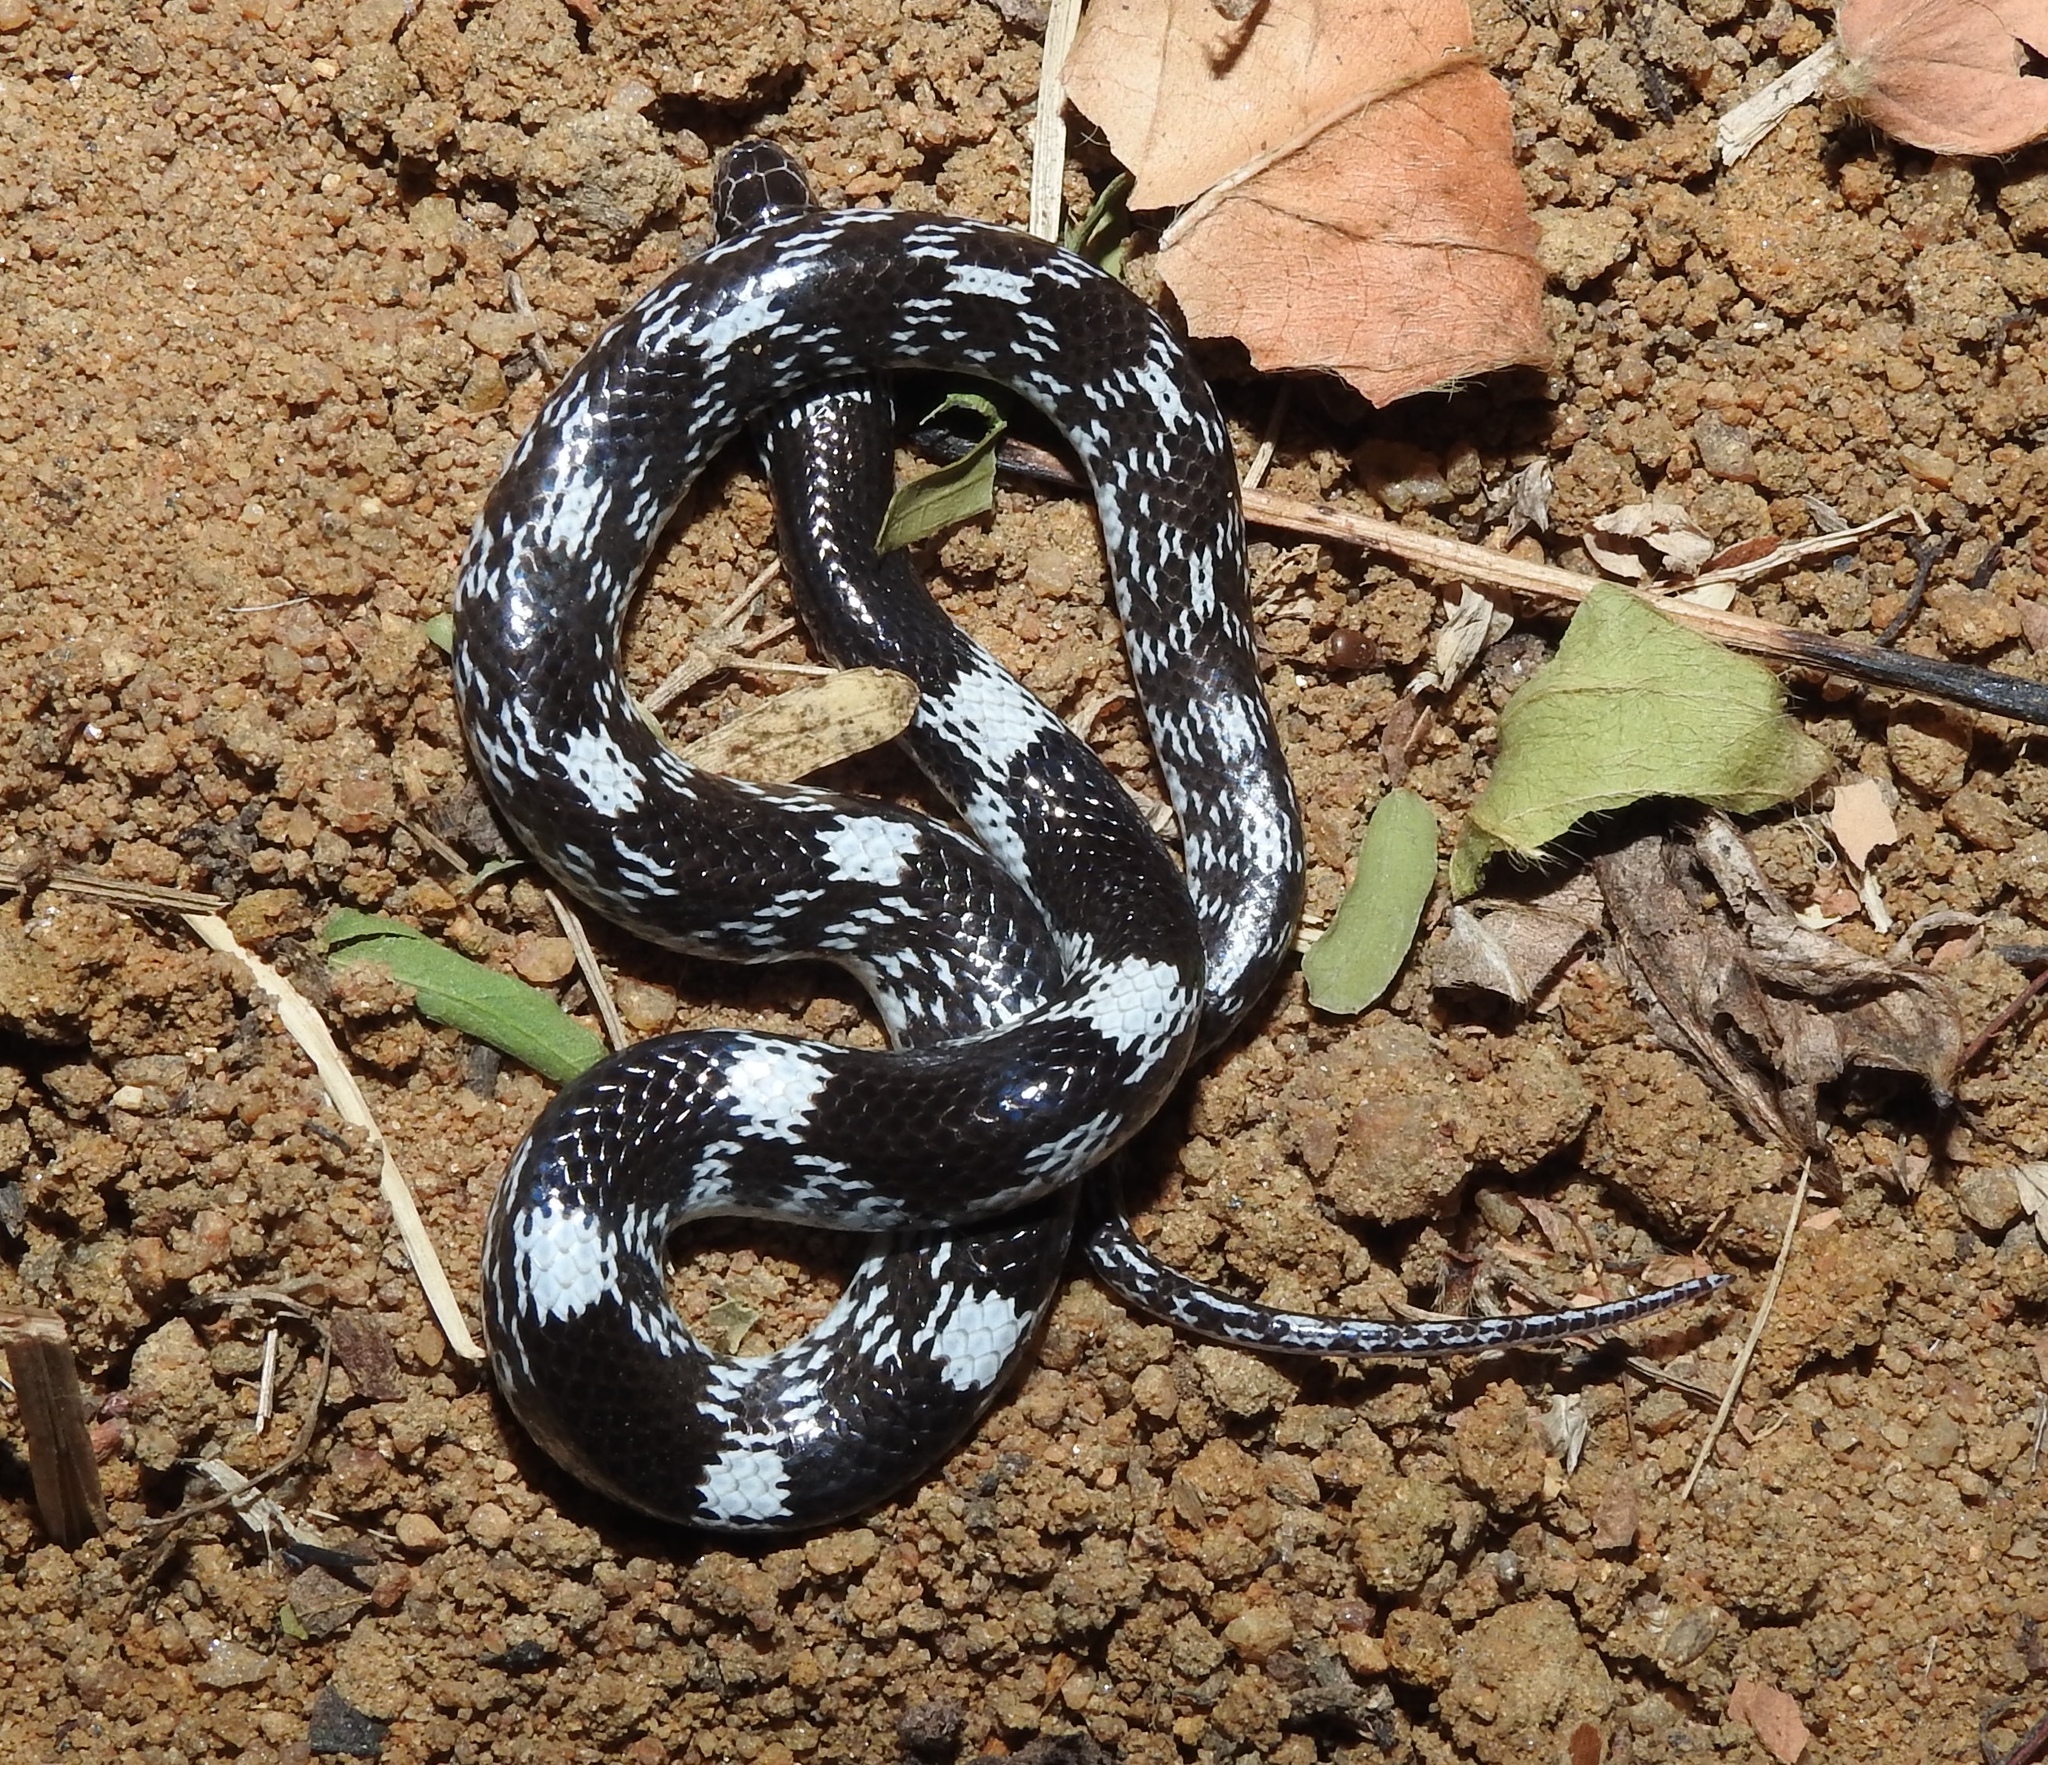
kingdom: Animalia
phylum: Chordata
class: Squamata
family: Colubridae
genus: Lycodon
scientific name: Lycodon striatus
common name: Barred wolf snake
